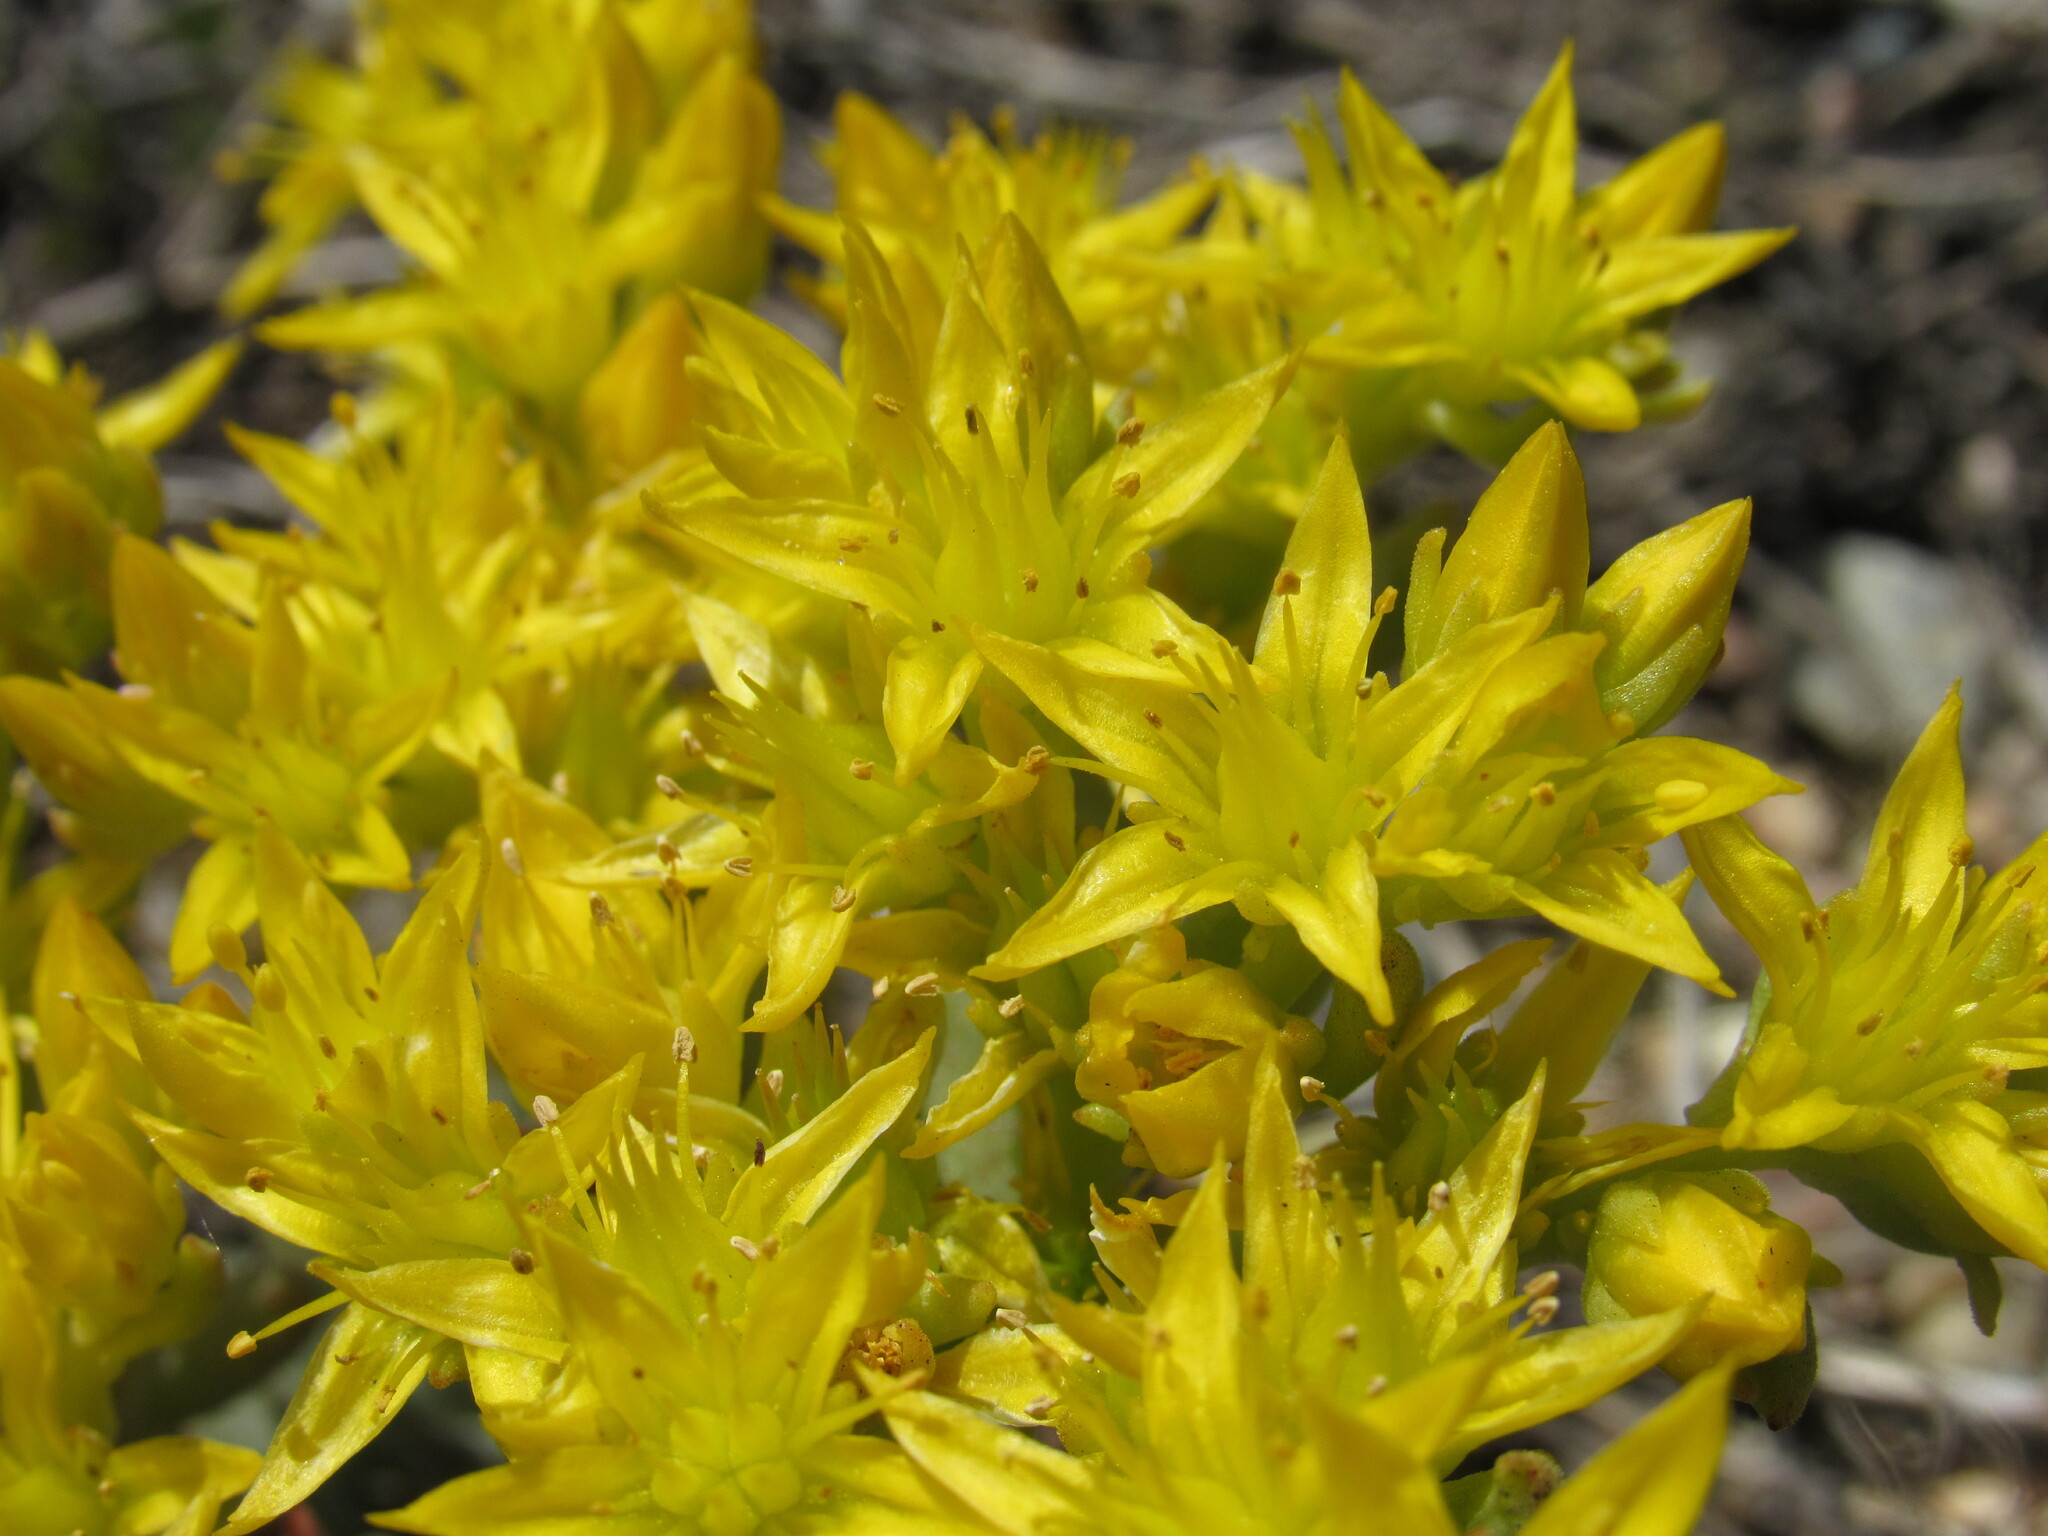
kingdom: Plantae
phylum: Tracheophyta
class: Magnoliopsida
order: Saxifragales
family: Crassulaceae
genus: Sedum
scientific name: Sedum lanceolatum
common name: Common stonecrop
